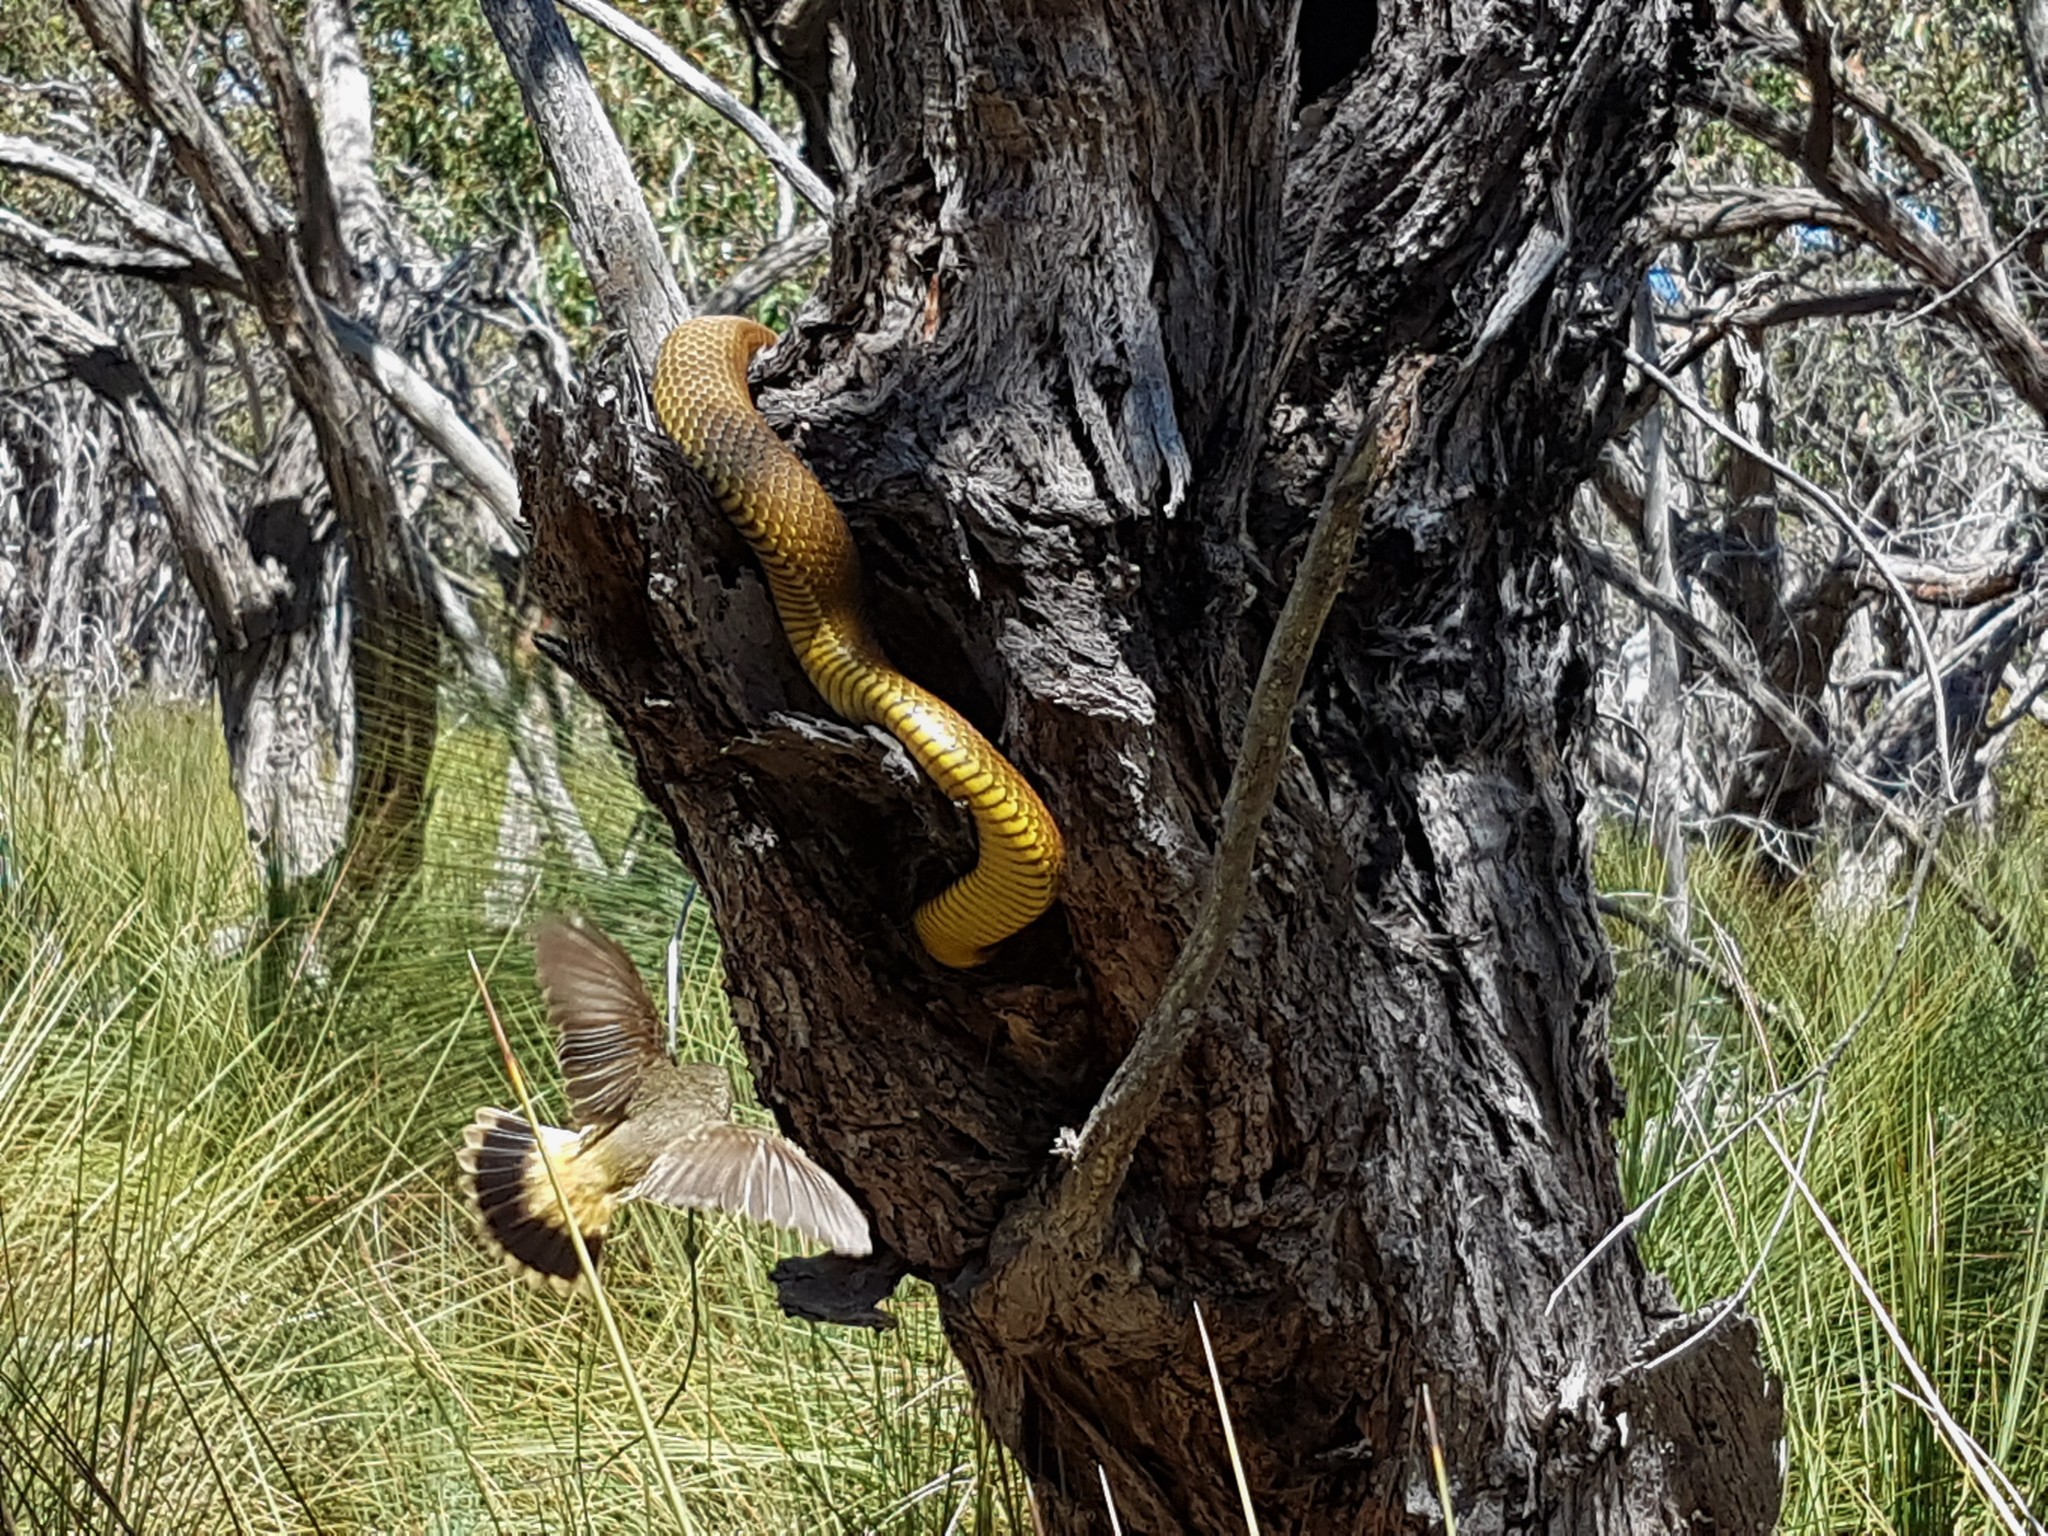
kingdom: Animalia
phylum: Chordata
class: Aves
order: Passeriformes
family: Acanthizidae
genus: Acanthiza
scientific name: Acanthiza reguloides
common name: Buff-rumped thornbill
